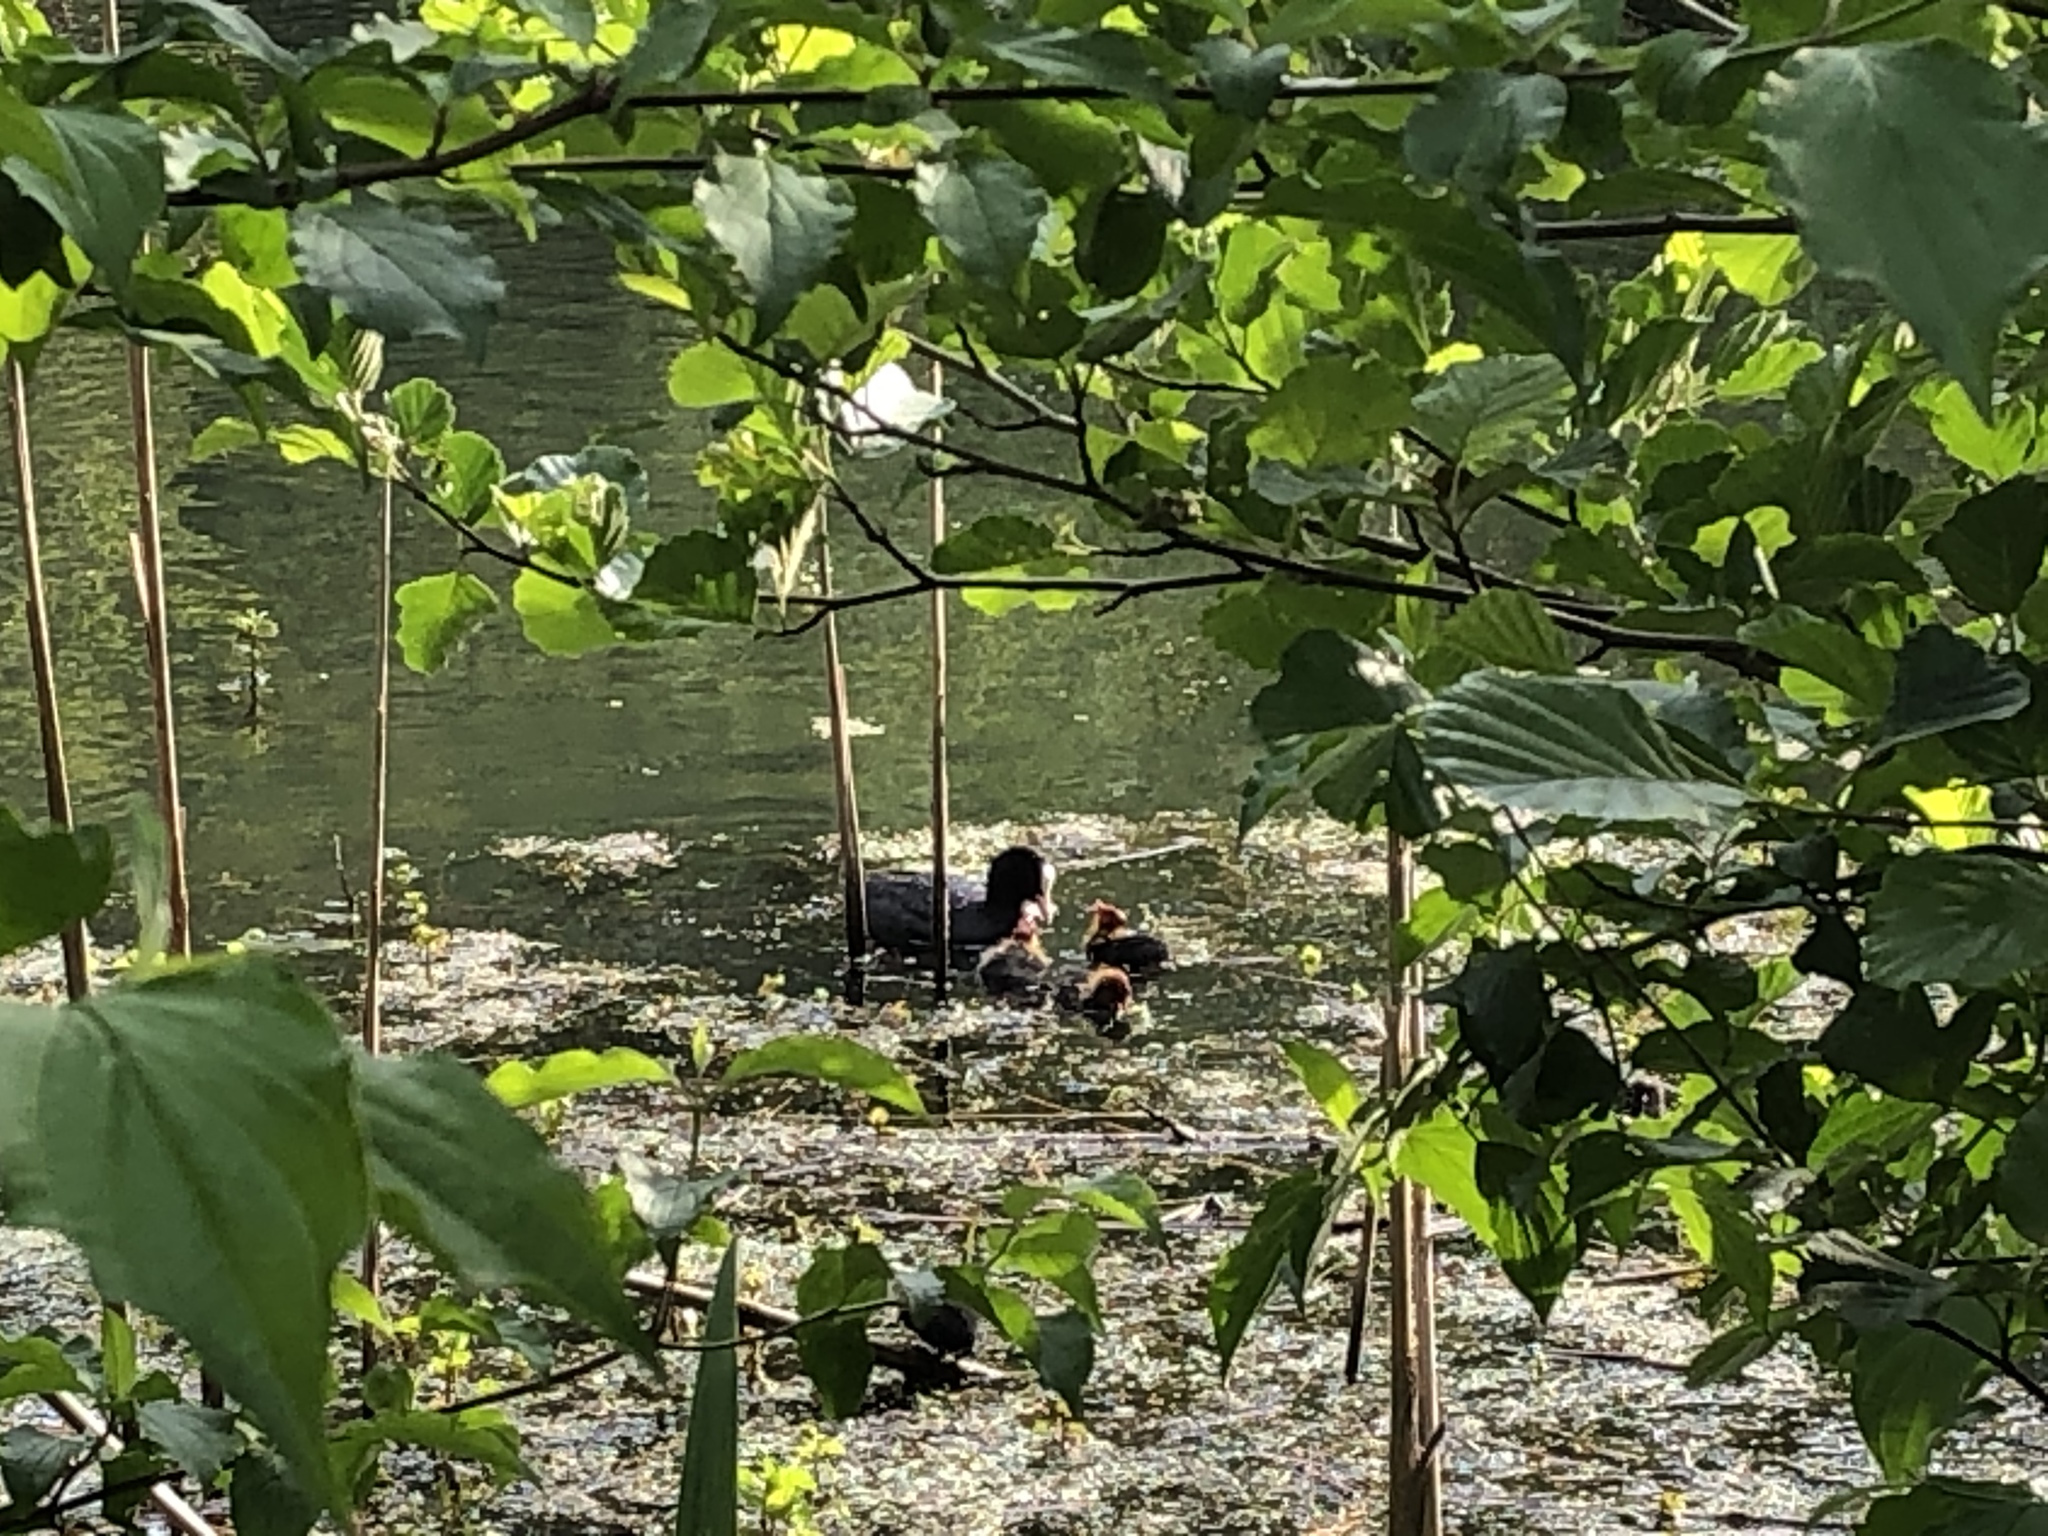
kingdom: Animalia
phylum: Chordata
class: Aves
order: Gruiformes
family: Rallidae
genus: Fulica
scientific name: Fulica atra
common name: Eurasian coot
